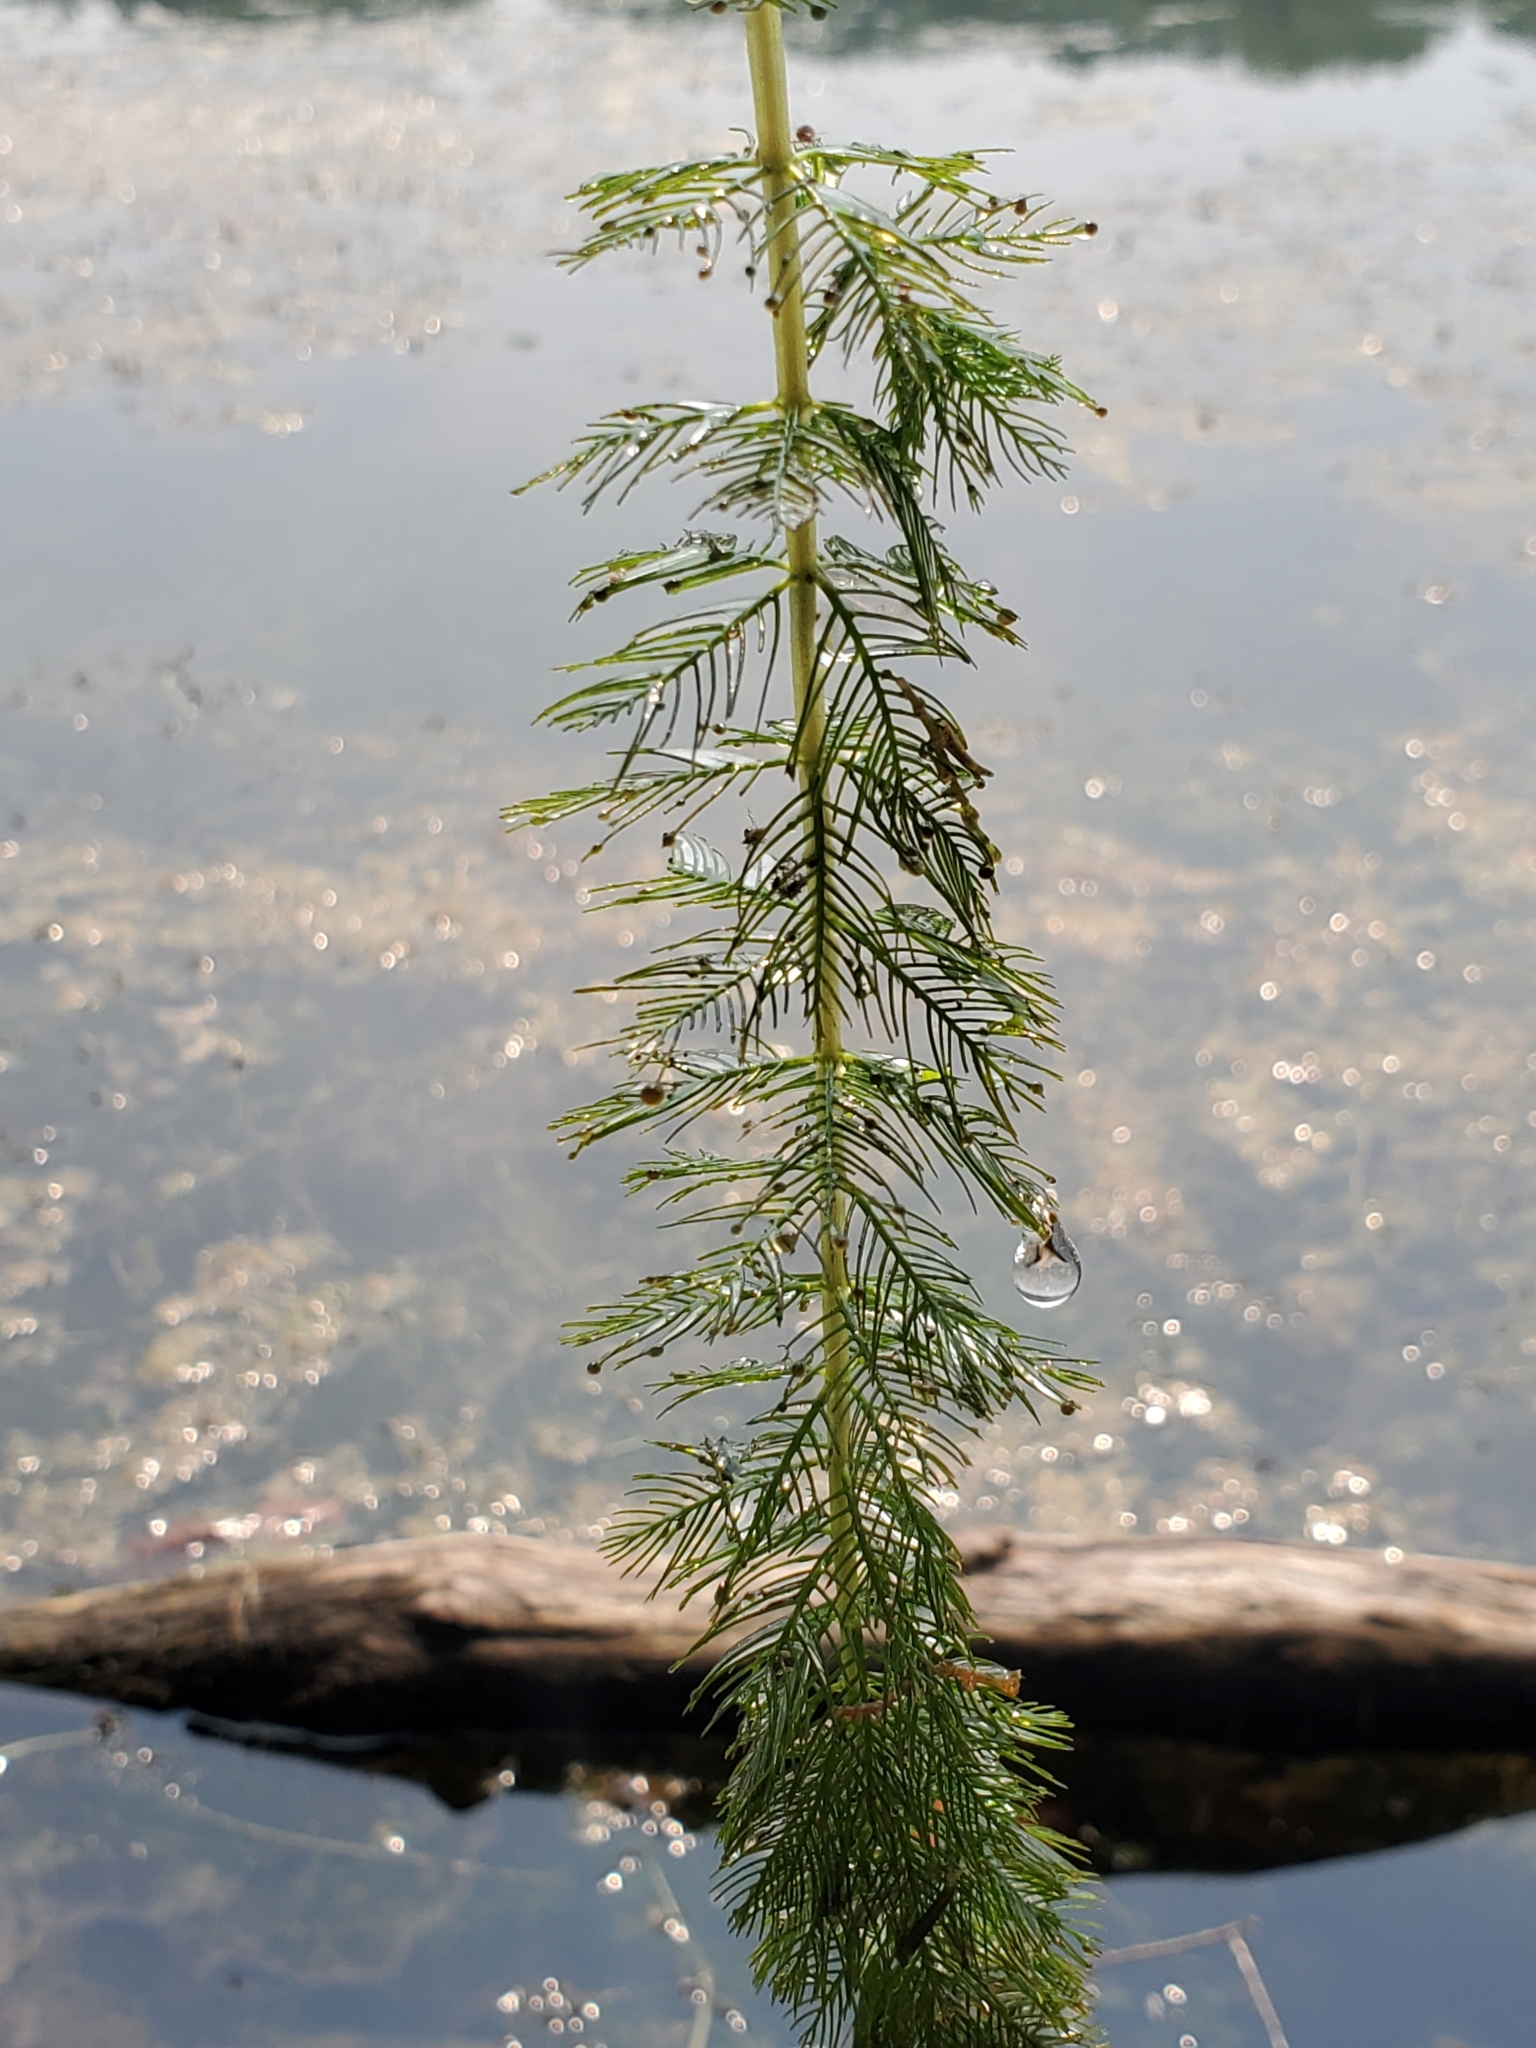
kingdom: Plantae
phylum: Tracheophyta
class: Magnoliopsida
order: Saxifragales
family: Haloragaceae
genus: Myriophyllum
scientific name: Myriophyllum sibiricum
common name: Siberian water-milfoil
